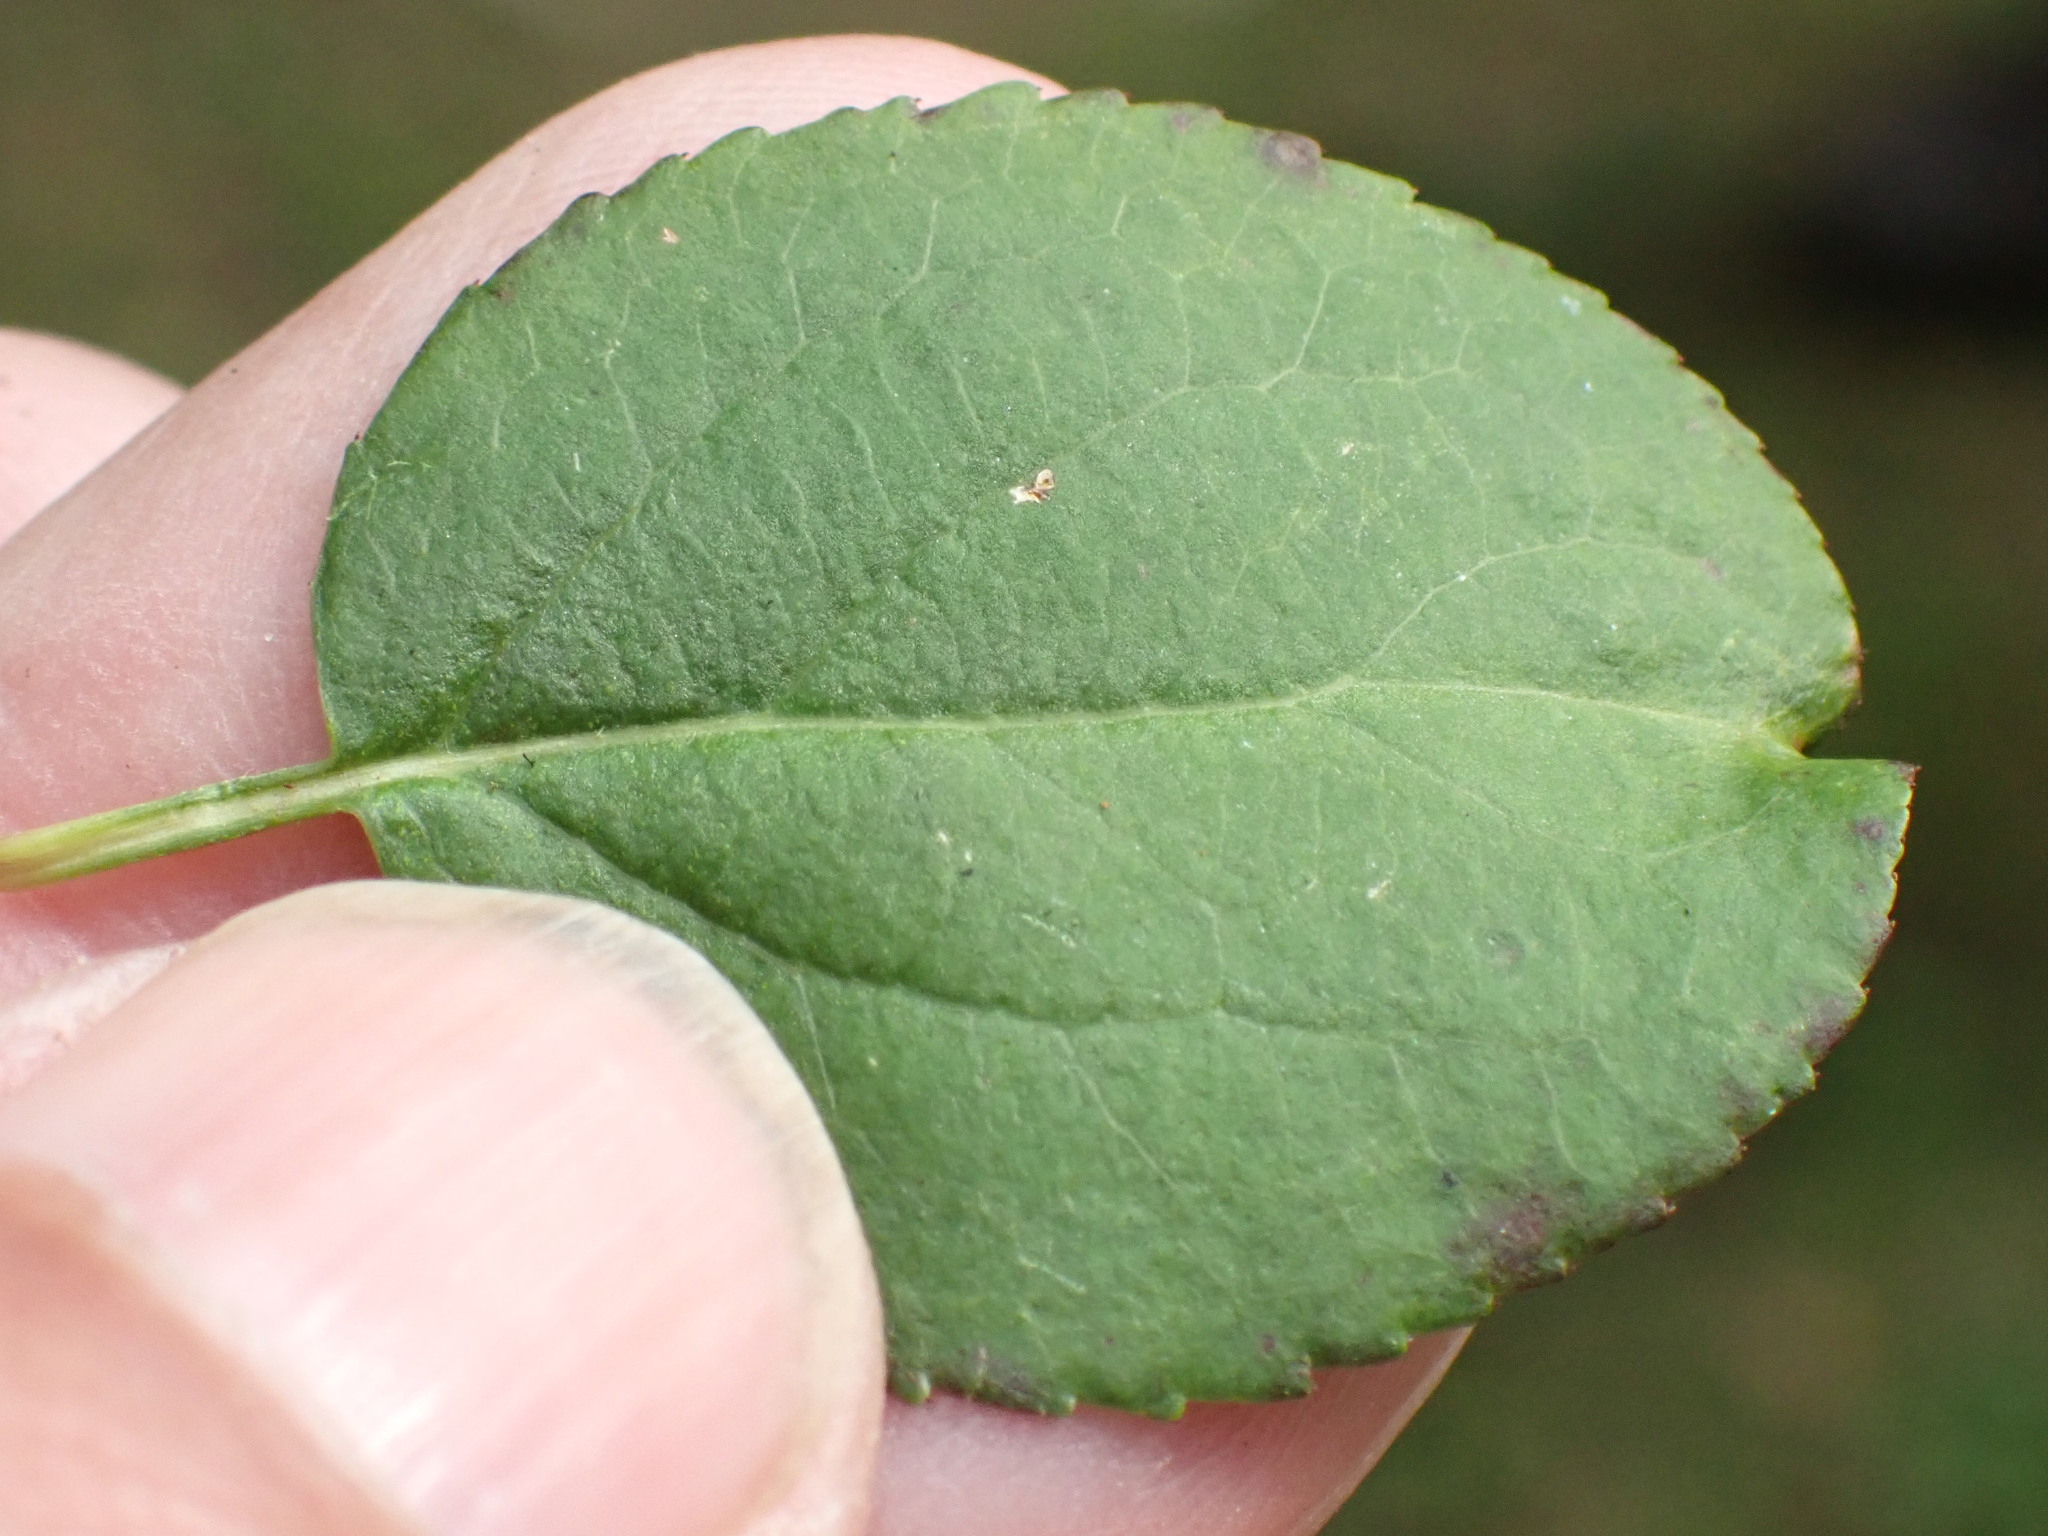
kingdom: Plantae
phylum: Tracheophyta
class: Magnoliopsida
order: Rosales
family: Rosaceae
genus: Malus
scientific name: Malus sylvestris
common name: Crab apple
